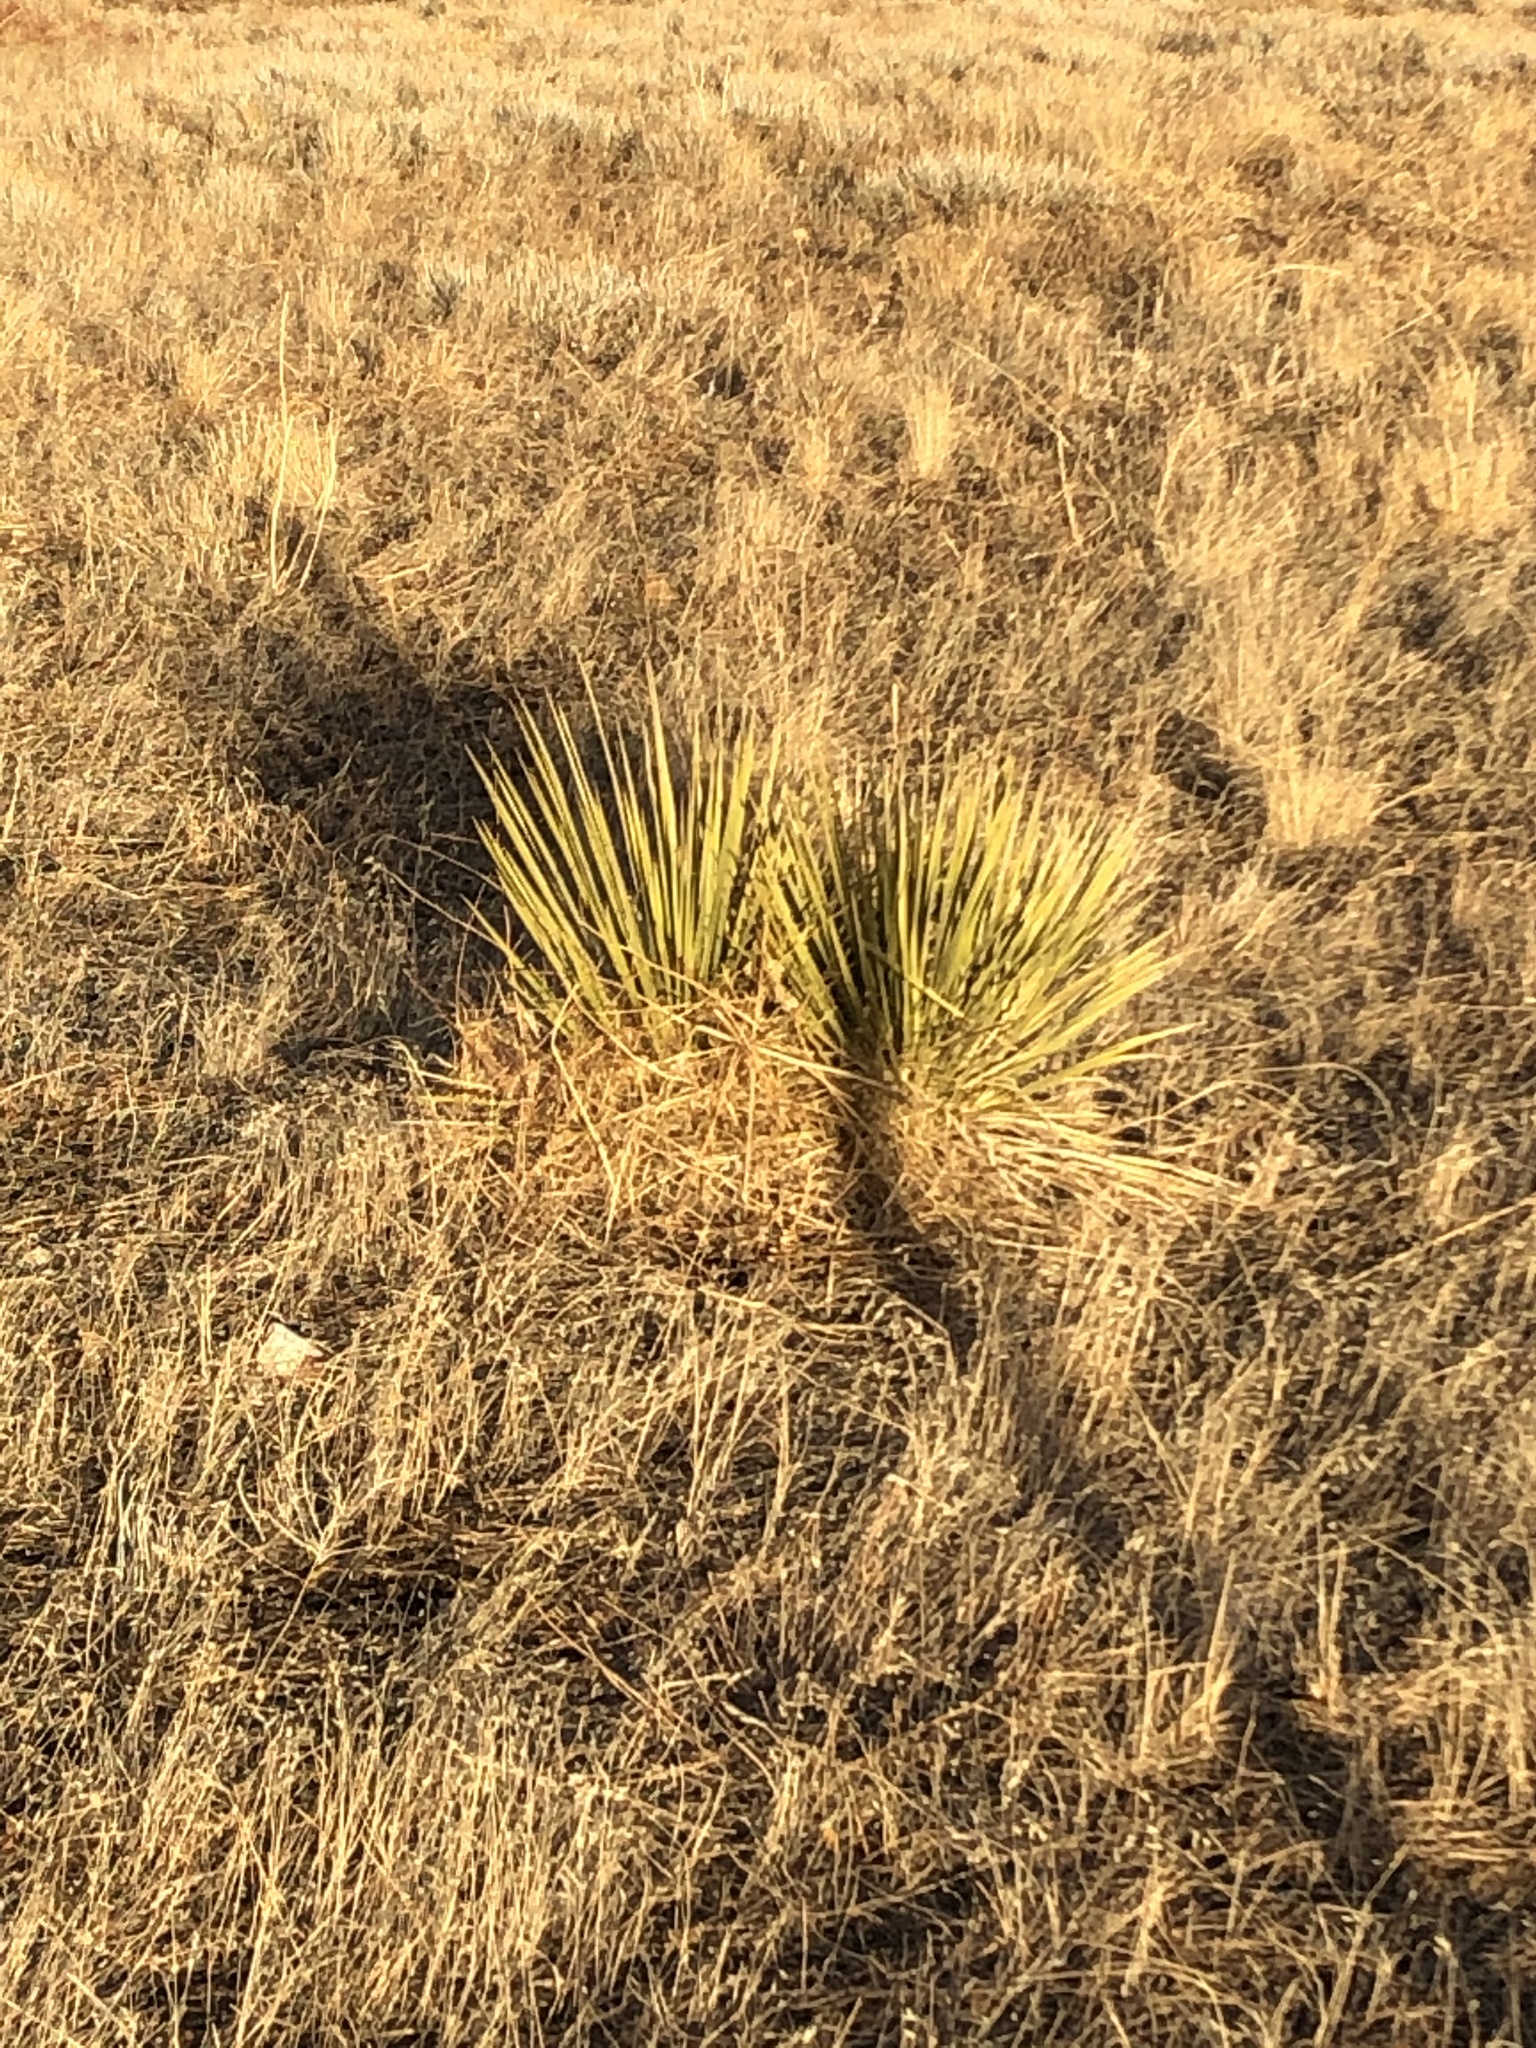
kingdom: Plantae
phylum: Tracheophyta
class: Liliopsida
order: Asparagales
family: Asparagaceae
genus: Yucca
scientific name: Yucca glauca
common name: Great plains yucca
